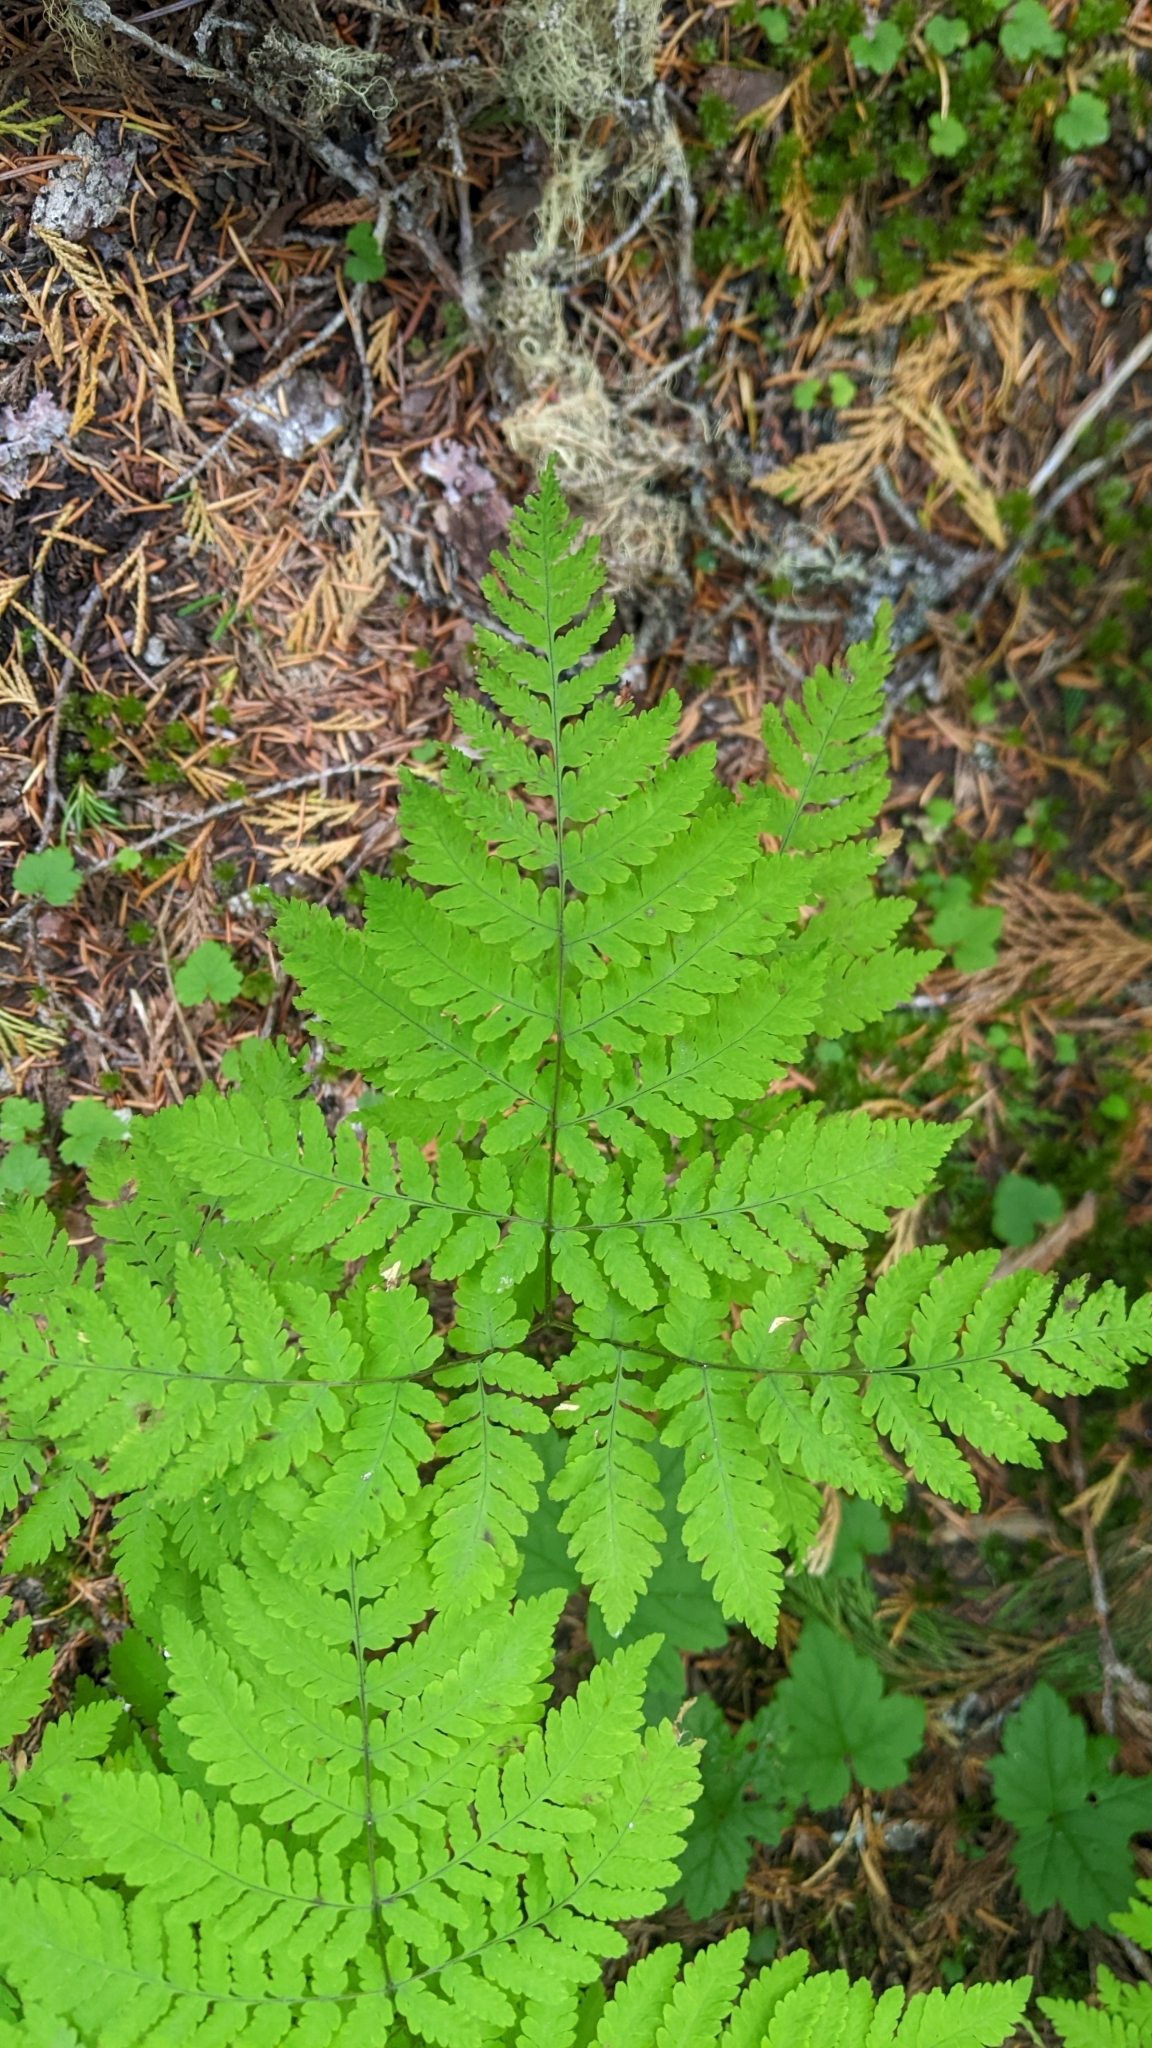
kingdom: Plantae
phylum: Tracheophyta
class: Polypodiopsida
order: Polypodiales
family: Cystopteridaceae
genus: Gymnocarpium
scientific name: Gymnocarpium disjunctum
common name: Western oak fern
